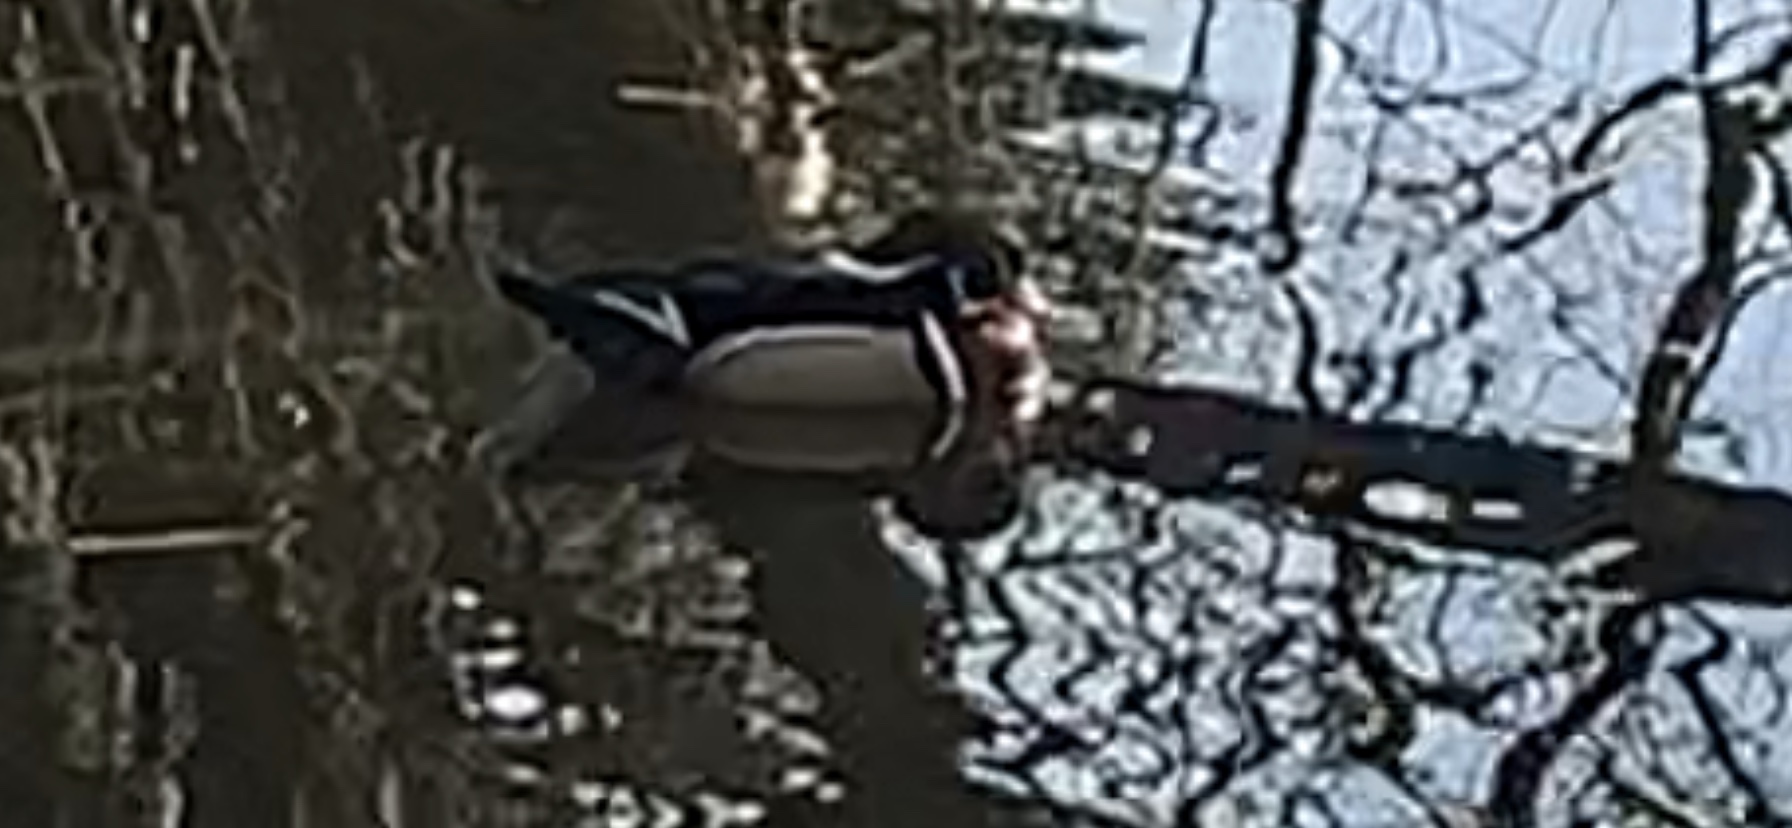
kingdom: Animalia
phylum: Chordata
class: Aves
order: Anseriformes
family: Anatidae
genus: Aix
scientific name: Aix sponsa
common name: Wood duck
